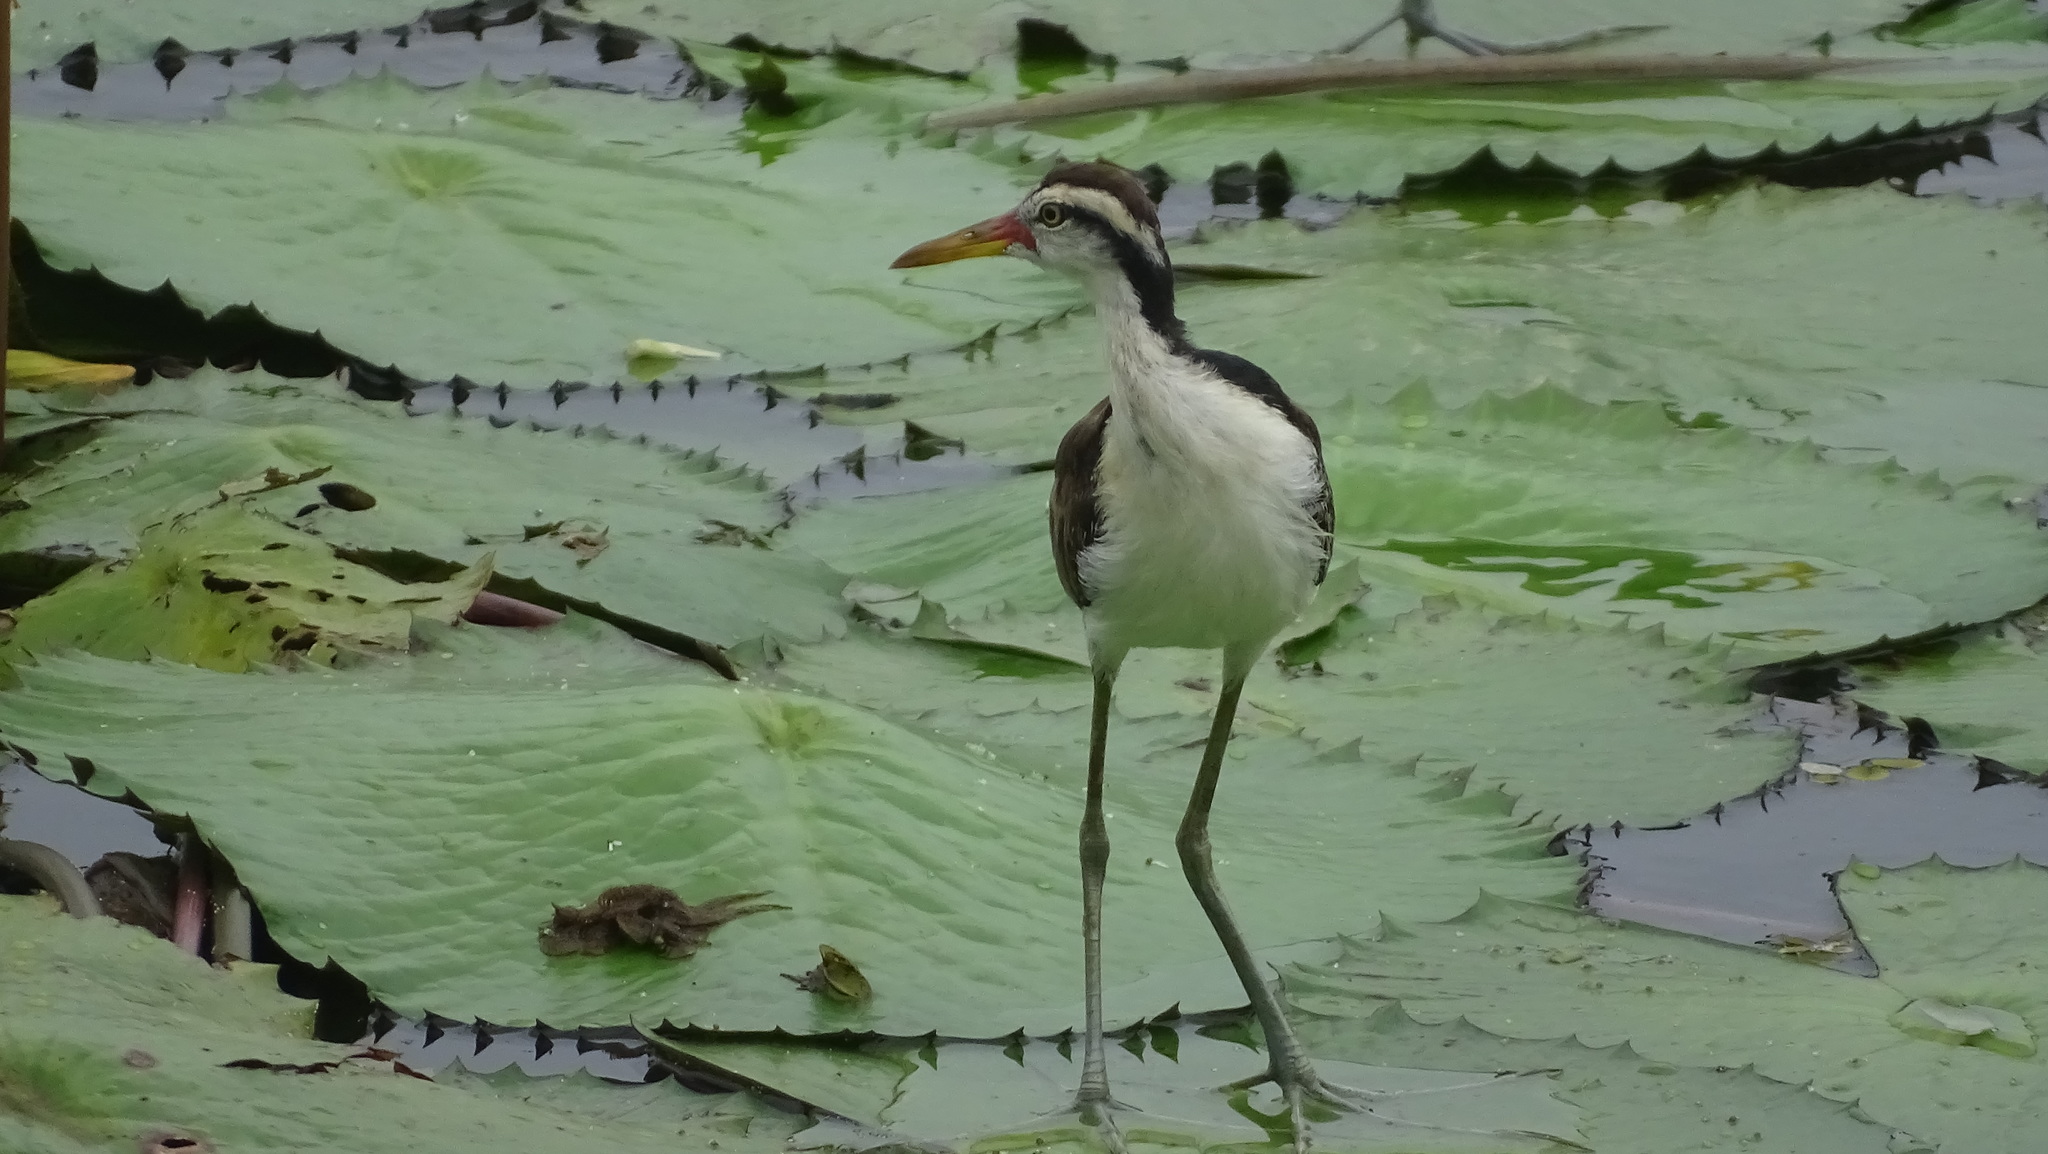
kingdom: Animalia
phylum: Chordata
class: Aves
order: Charadriiformes
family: Jacanidae
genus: Jacana
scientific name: Jacana jacana
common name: Wattled jacana
